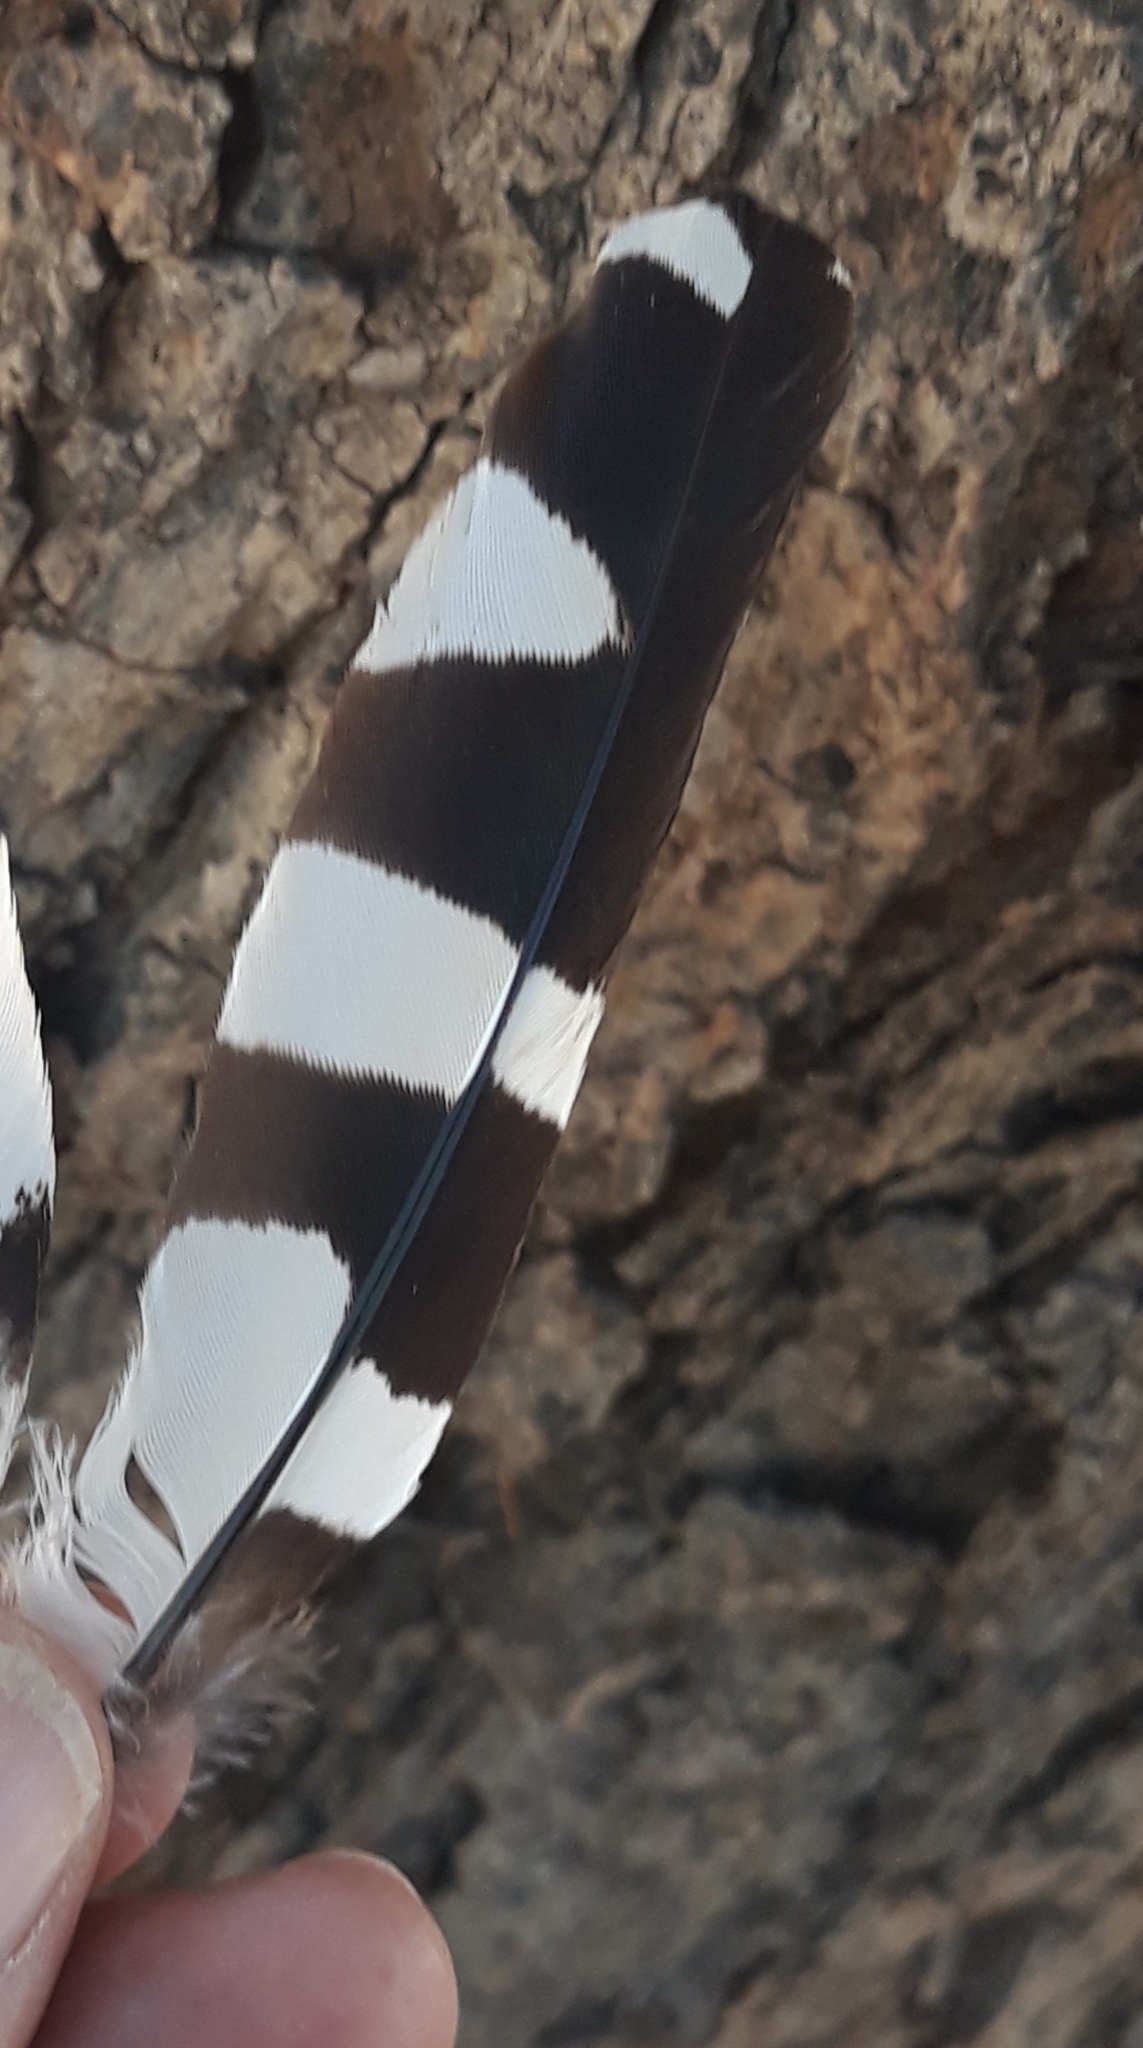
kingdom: Animalia
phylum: Chordata
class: Aves
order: Bucerotiformes
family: Upupidae
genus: Upupa
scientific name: Upupa epops
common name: Eurasian hoopoe
